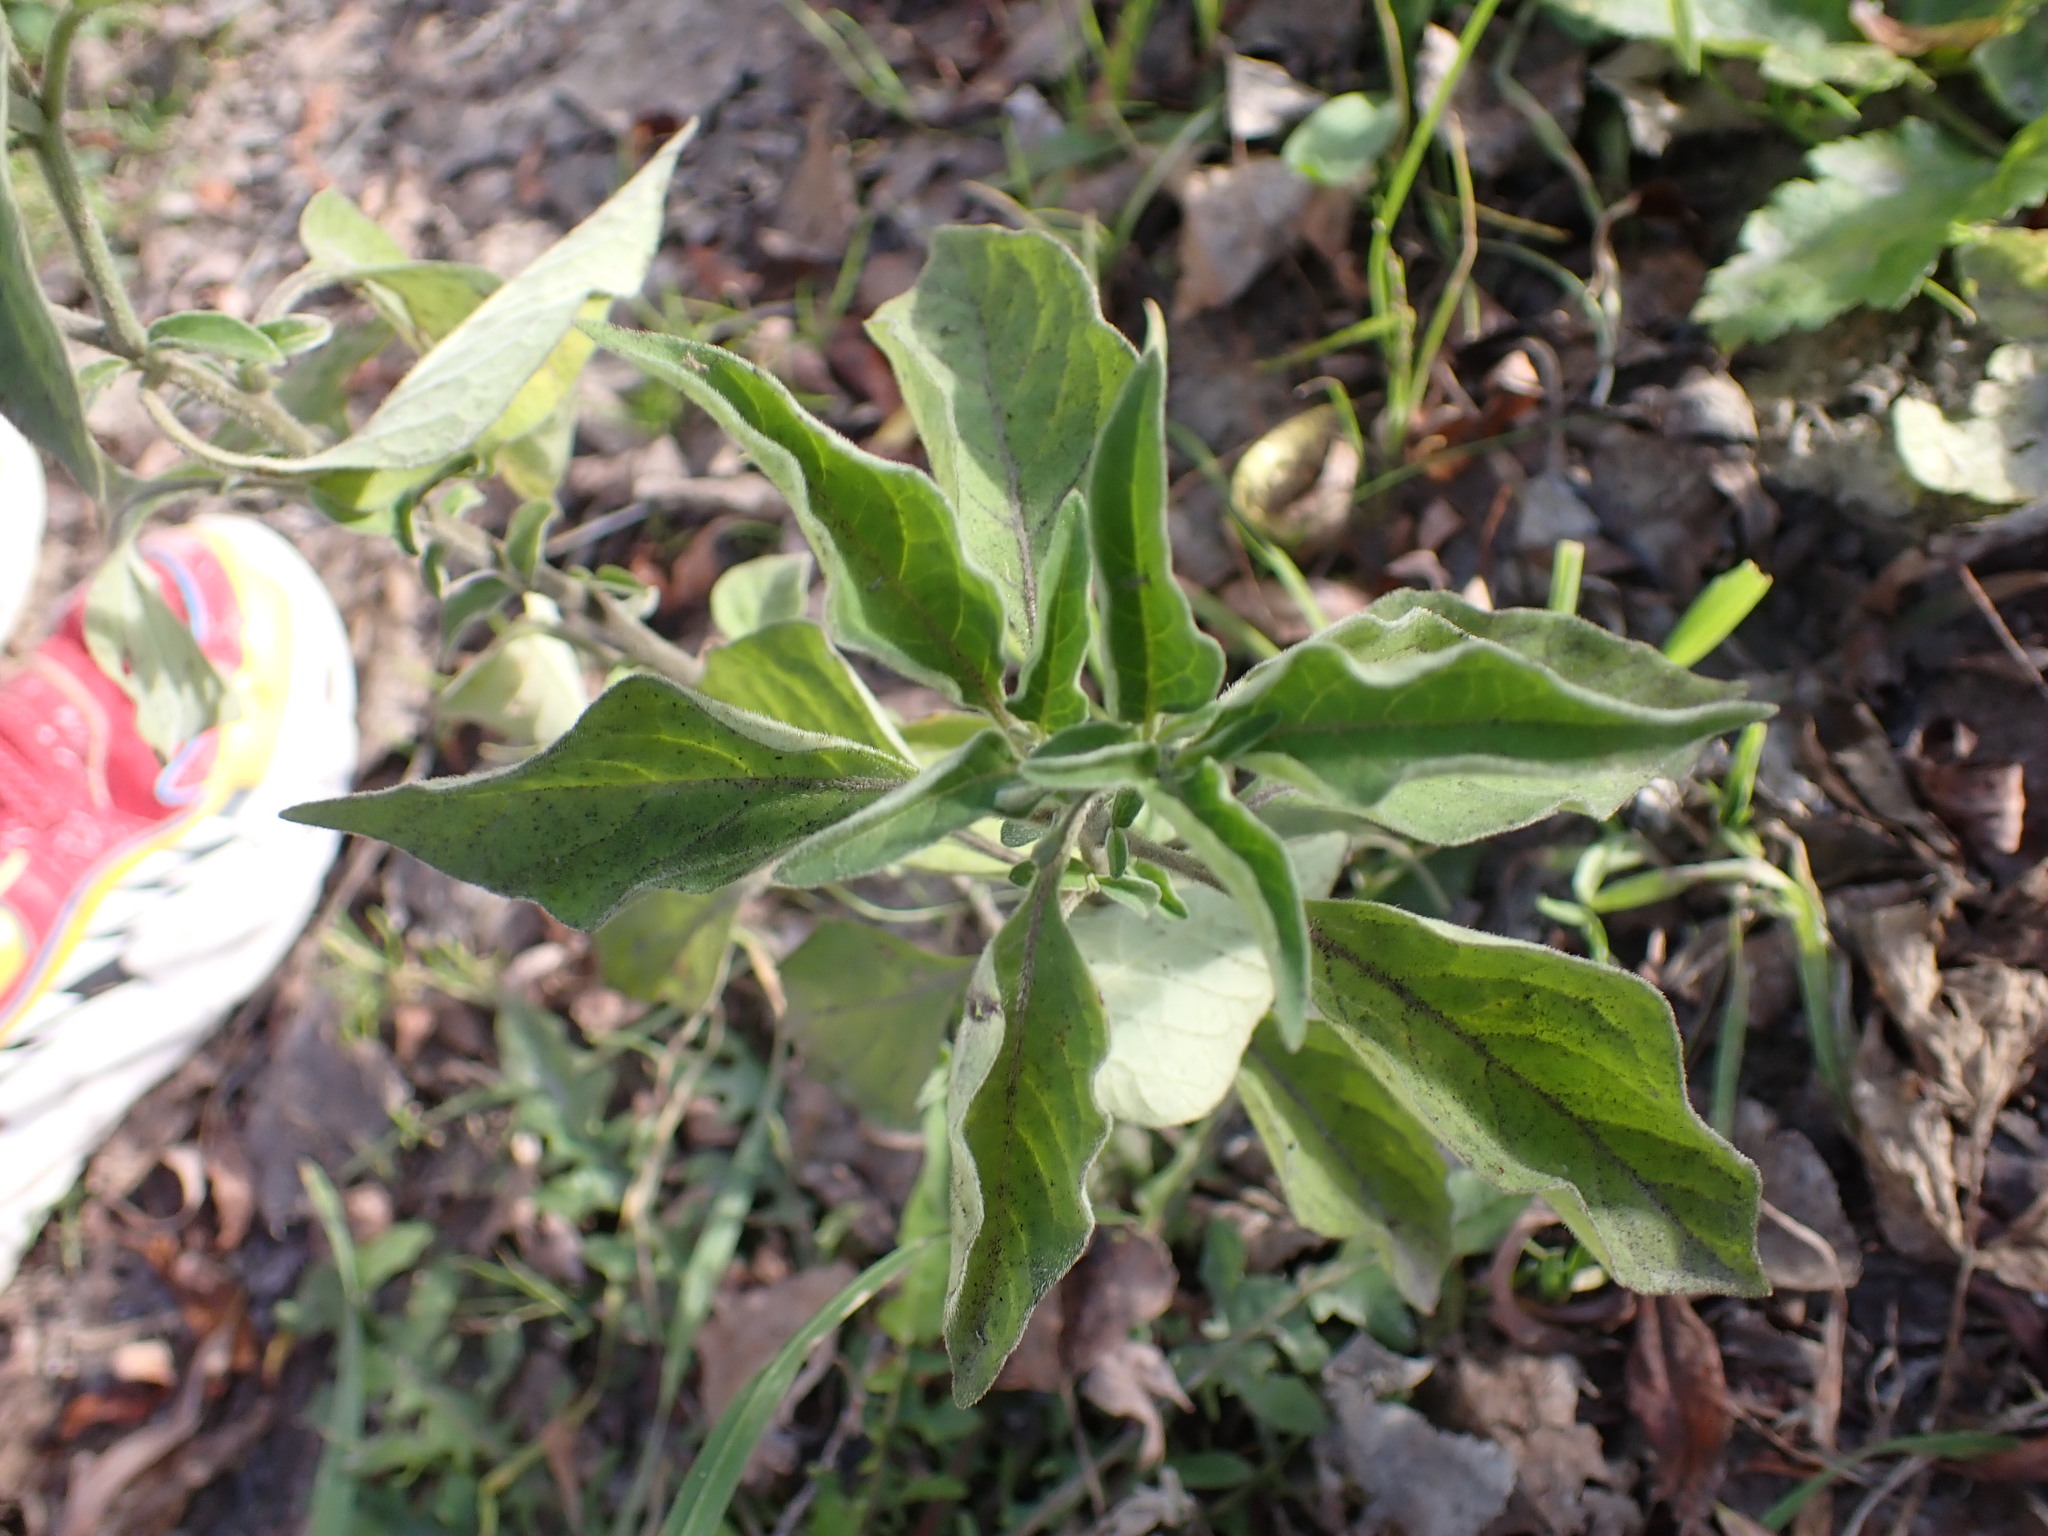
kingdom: Plantae
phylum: Tracheophyta
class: Magnoliopsida
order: Solanales
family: Solanaceae
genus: Solanum
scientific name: Solanum chenopodioides
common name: Tall nightshade
